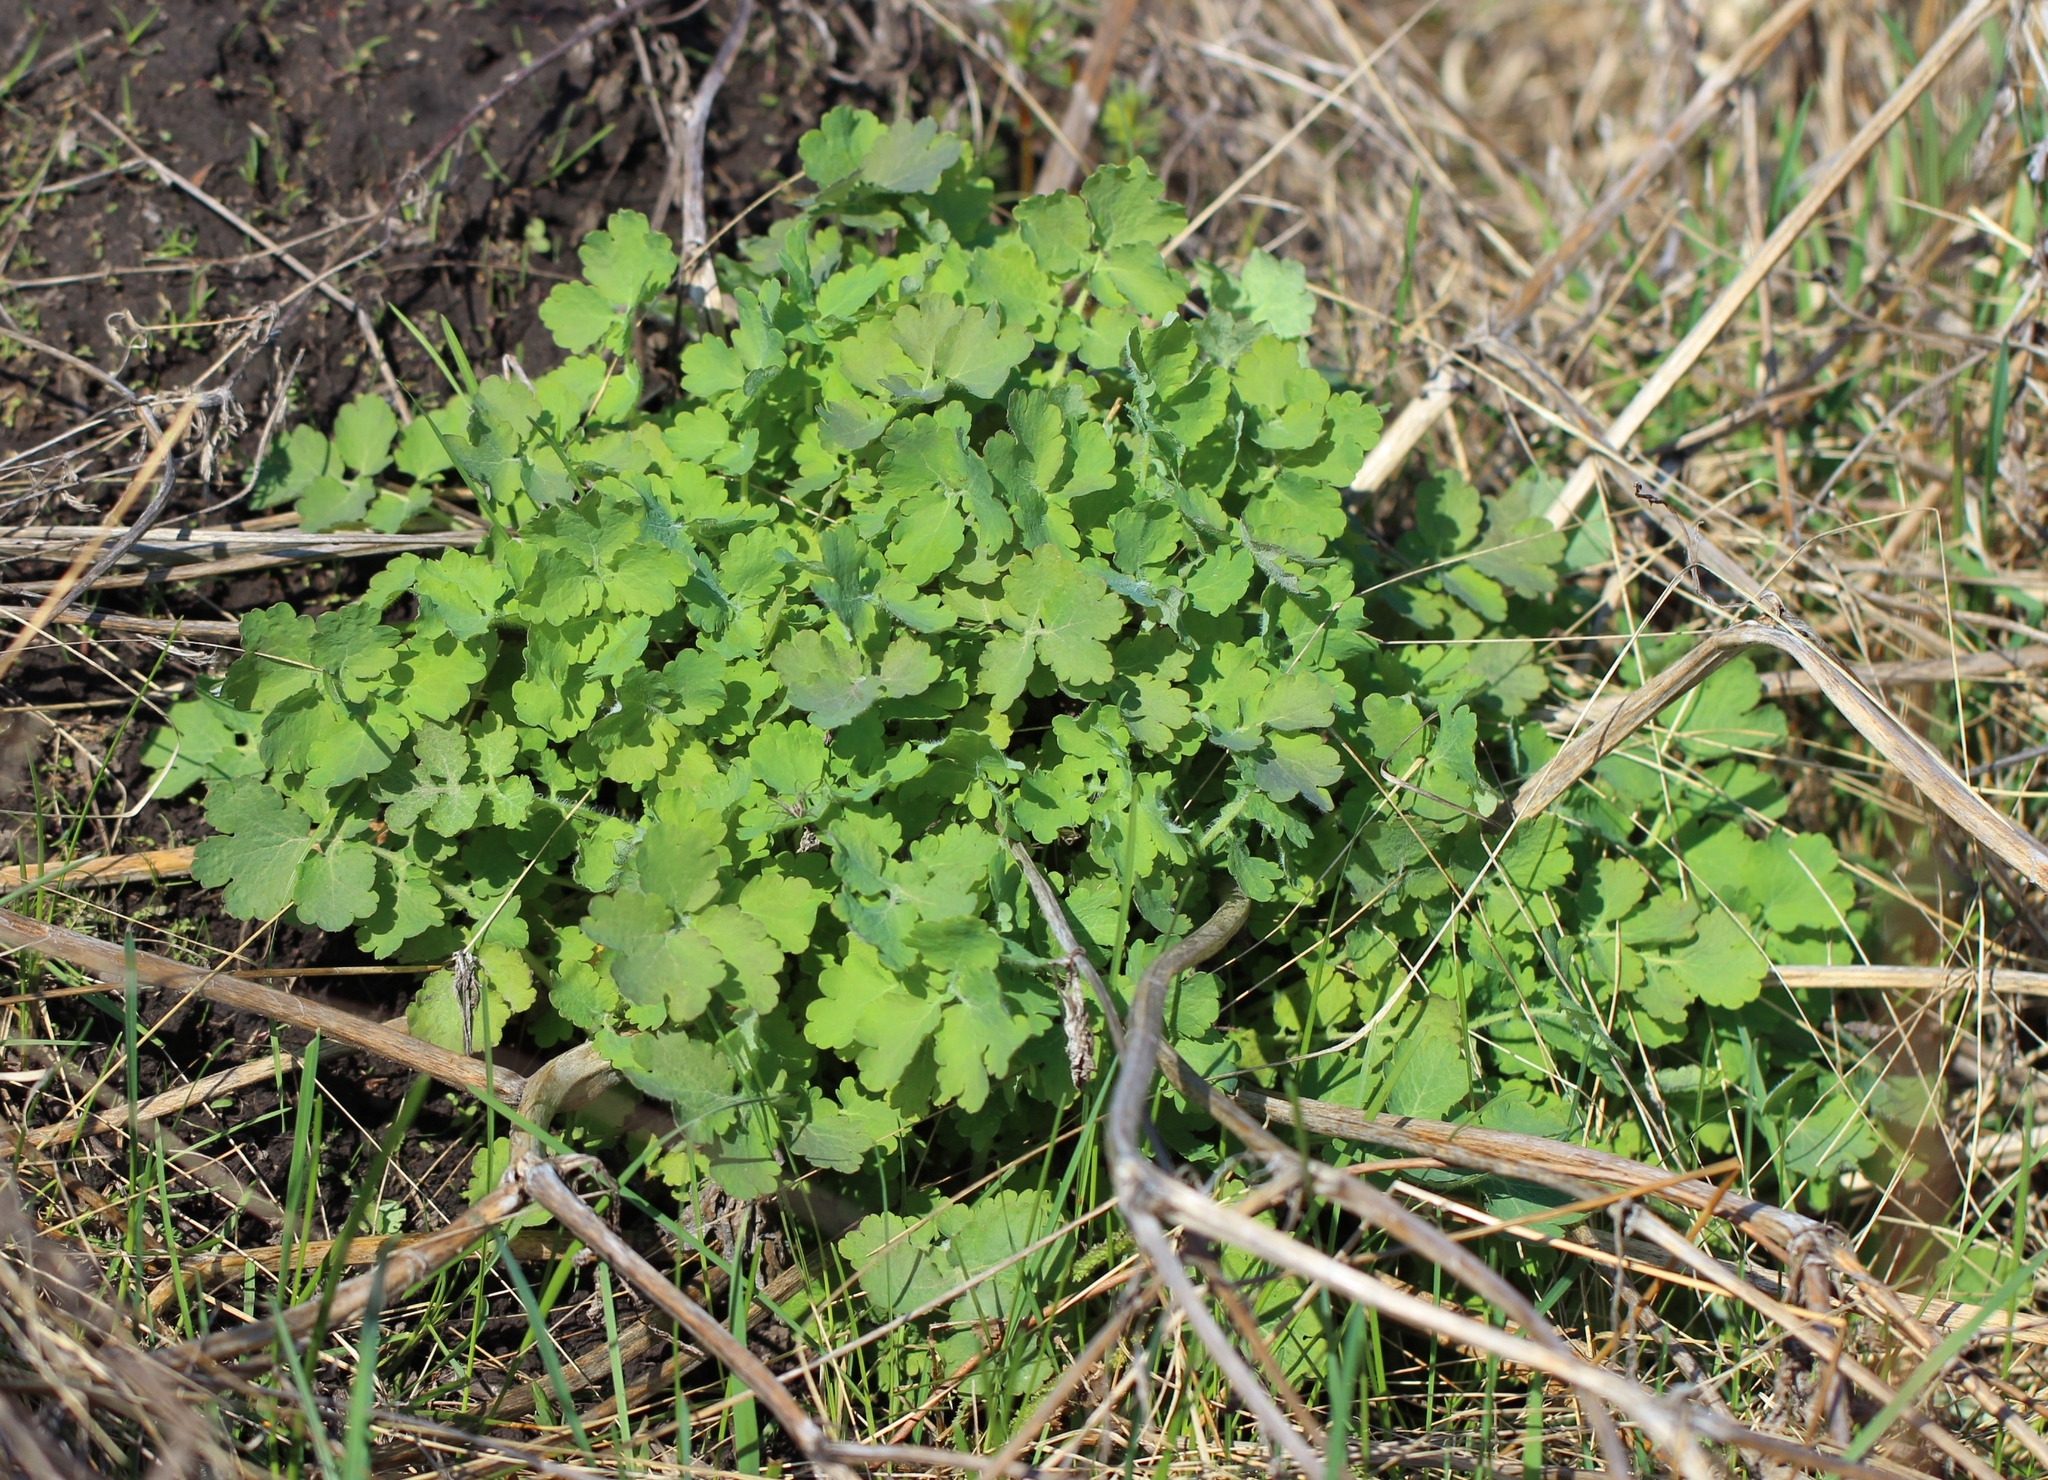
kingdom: Plantae
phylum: Tracheophyta
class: Magnoliopsida
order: Ranunculales
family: Papaveraceae
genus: Chelidonium
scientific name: Chelidonium majus
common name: Greater celandine
